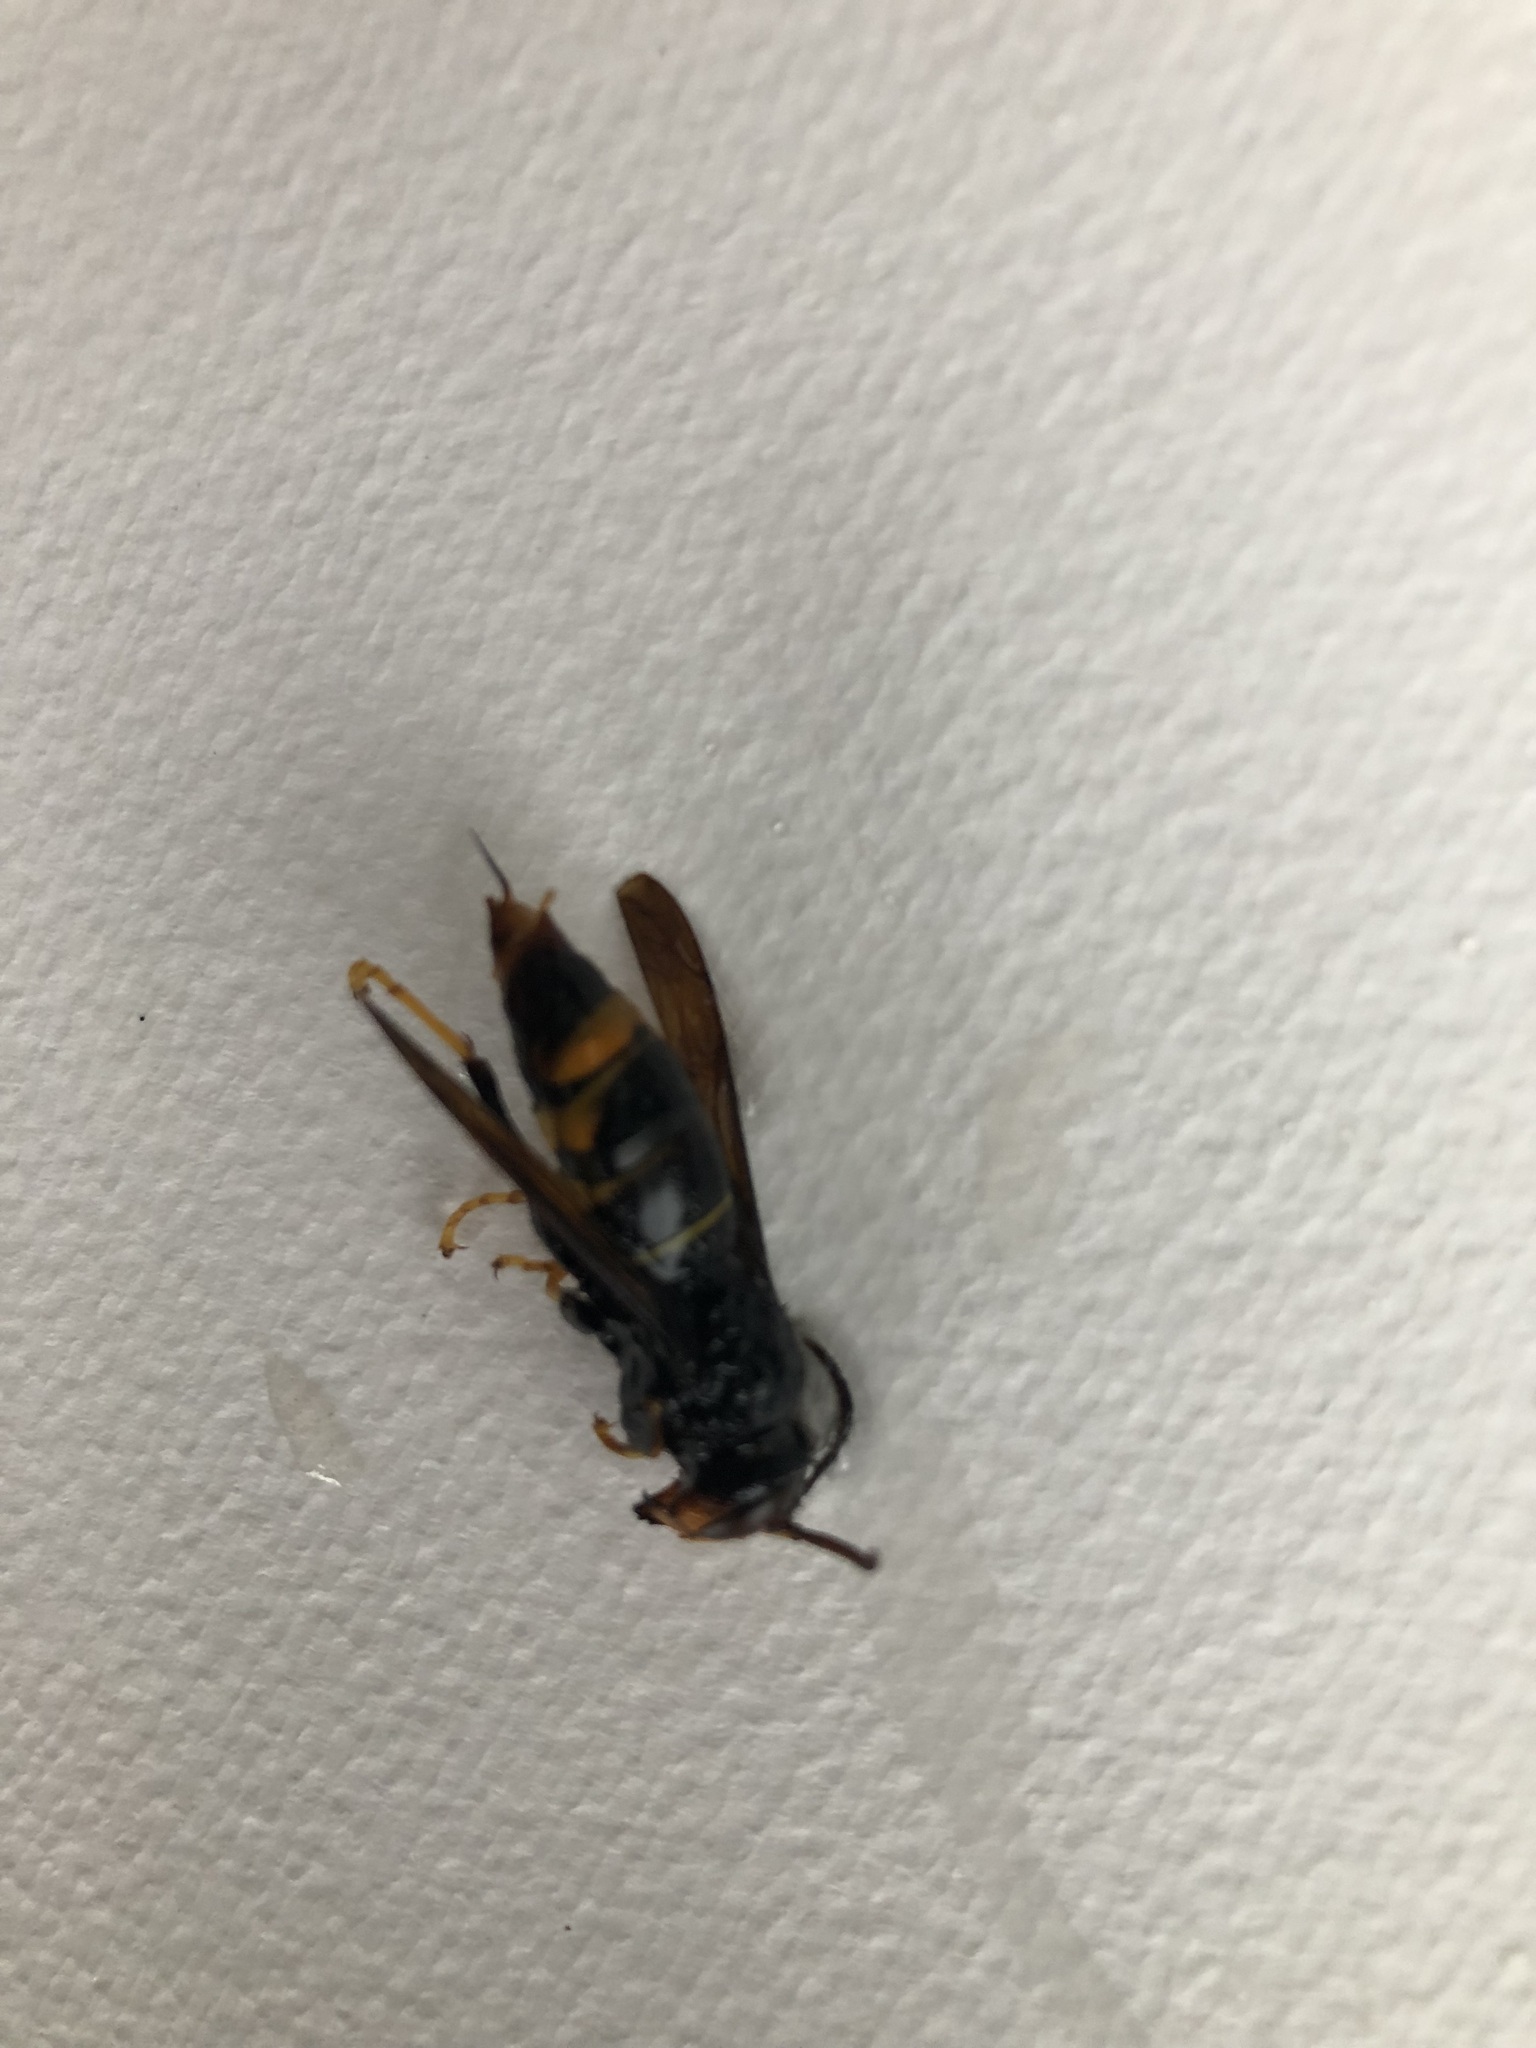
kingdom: Animalia
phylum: Arthropoda
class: Insecta
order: Hymenoptera
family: Vespidae
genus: Vespa
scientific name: Vespa velutina
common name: Asian hornet
